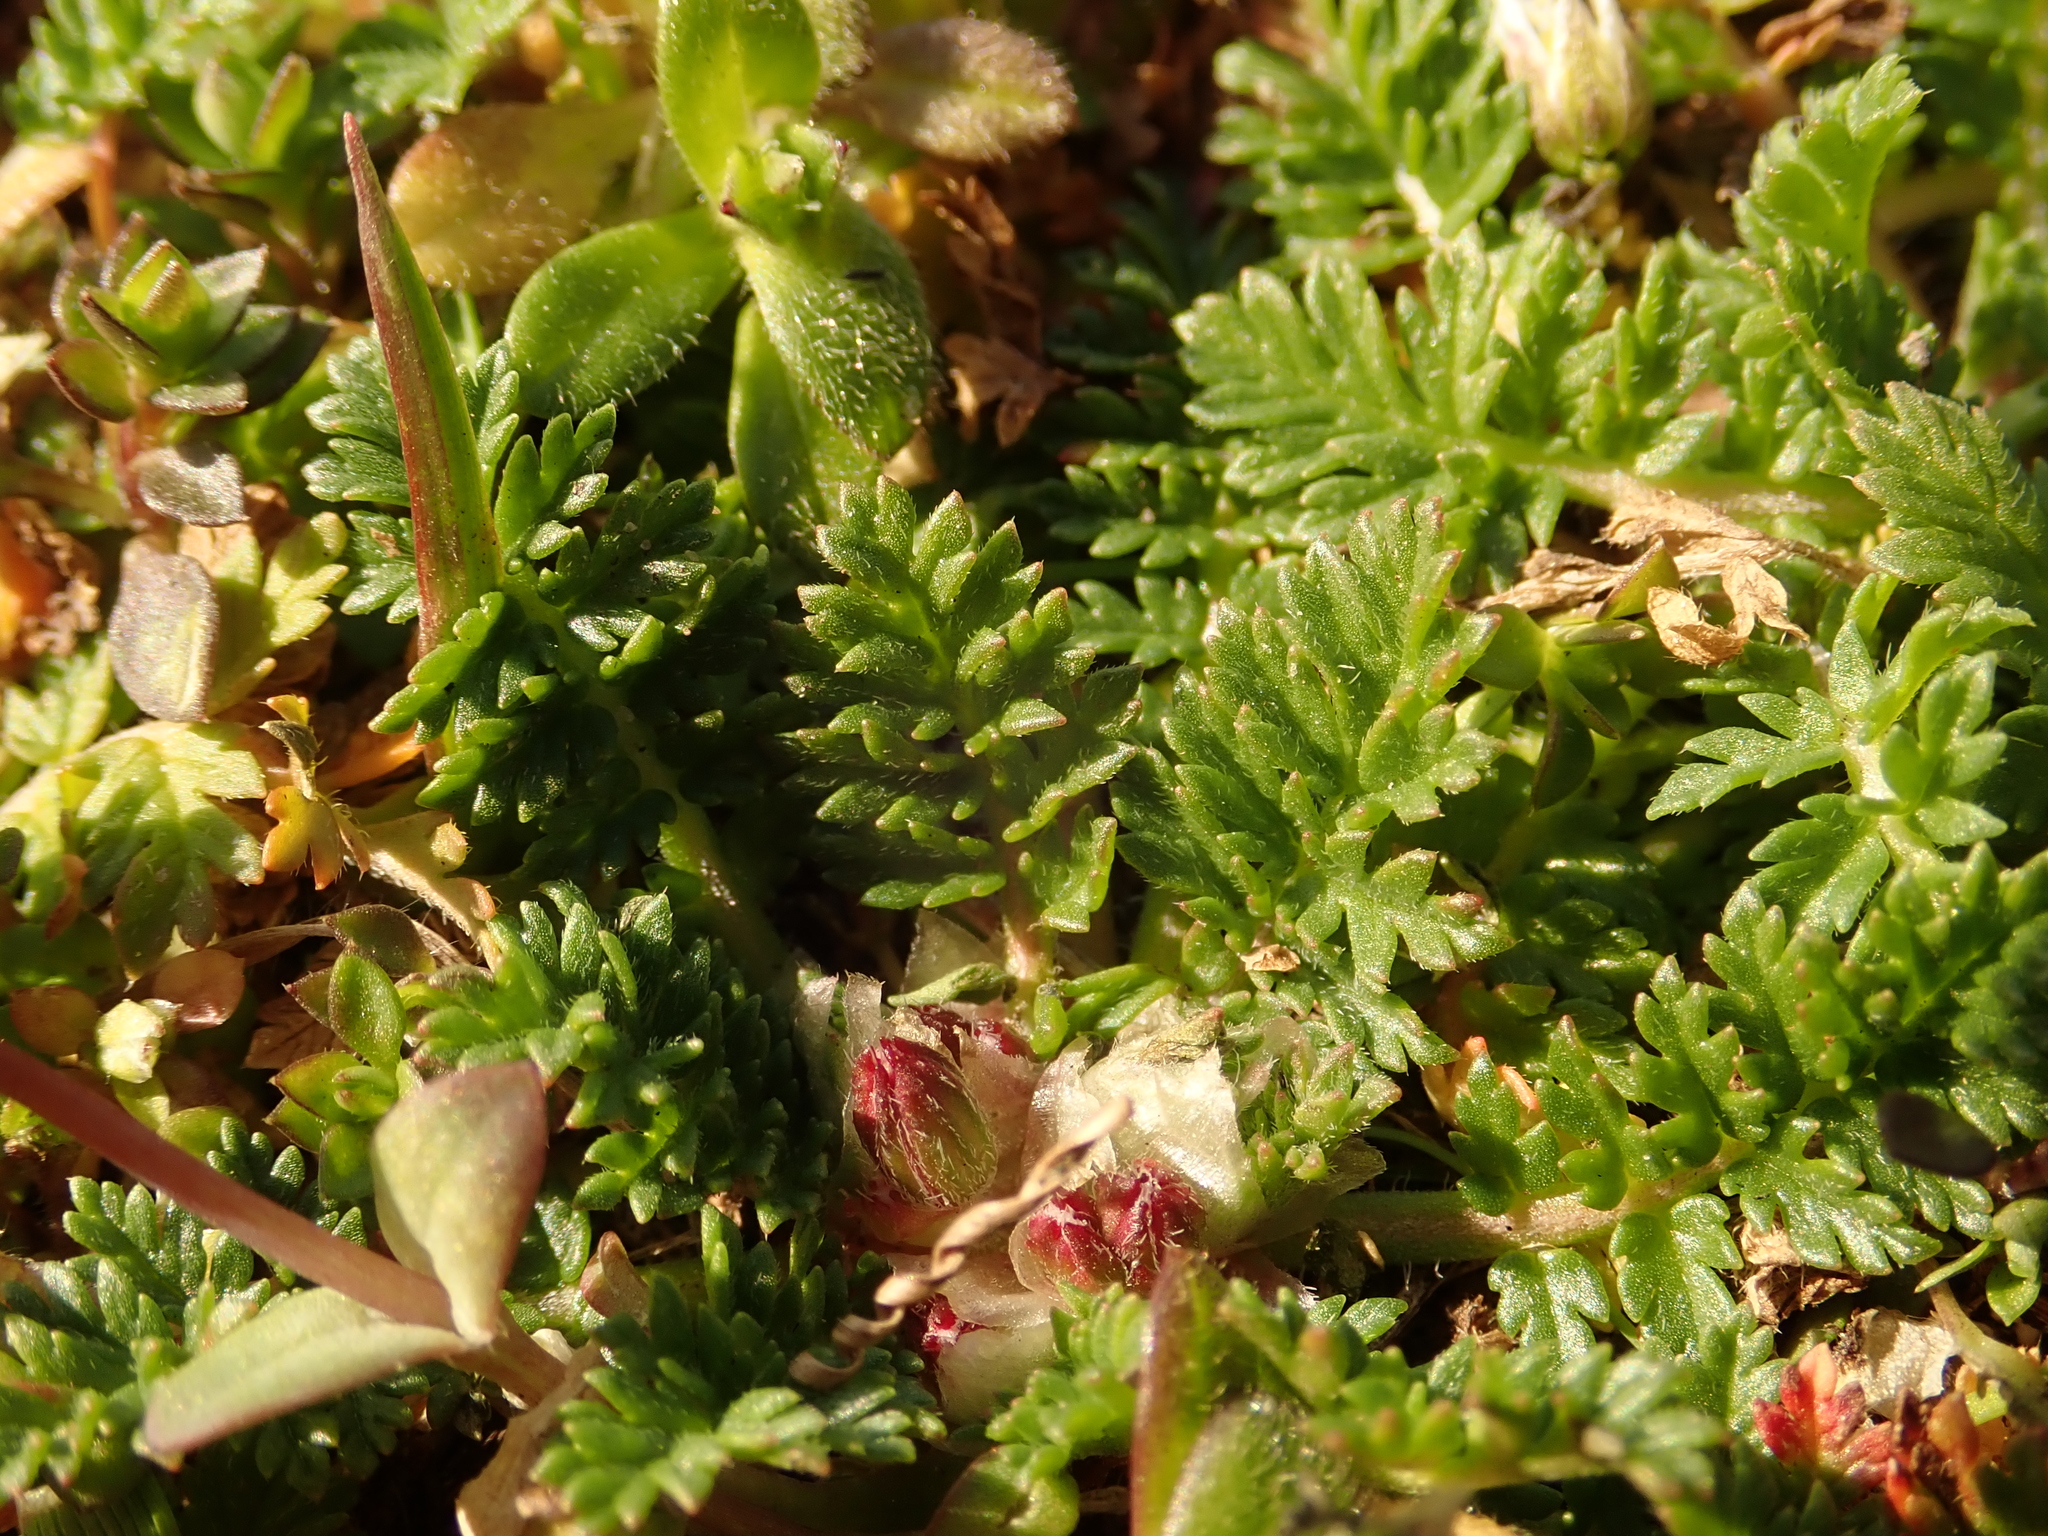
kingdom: Plantae
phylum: Tracheophyta
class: Magnoliopsida
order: Geraniales
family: Geraniaceae
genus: Erodium
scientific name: Erodium cicutarium
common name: Common stork's-bill
